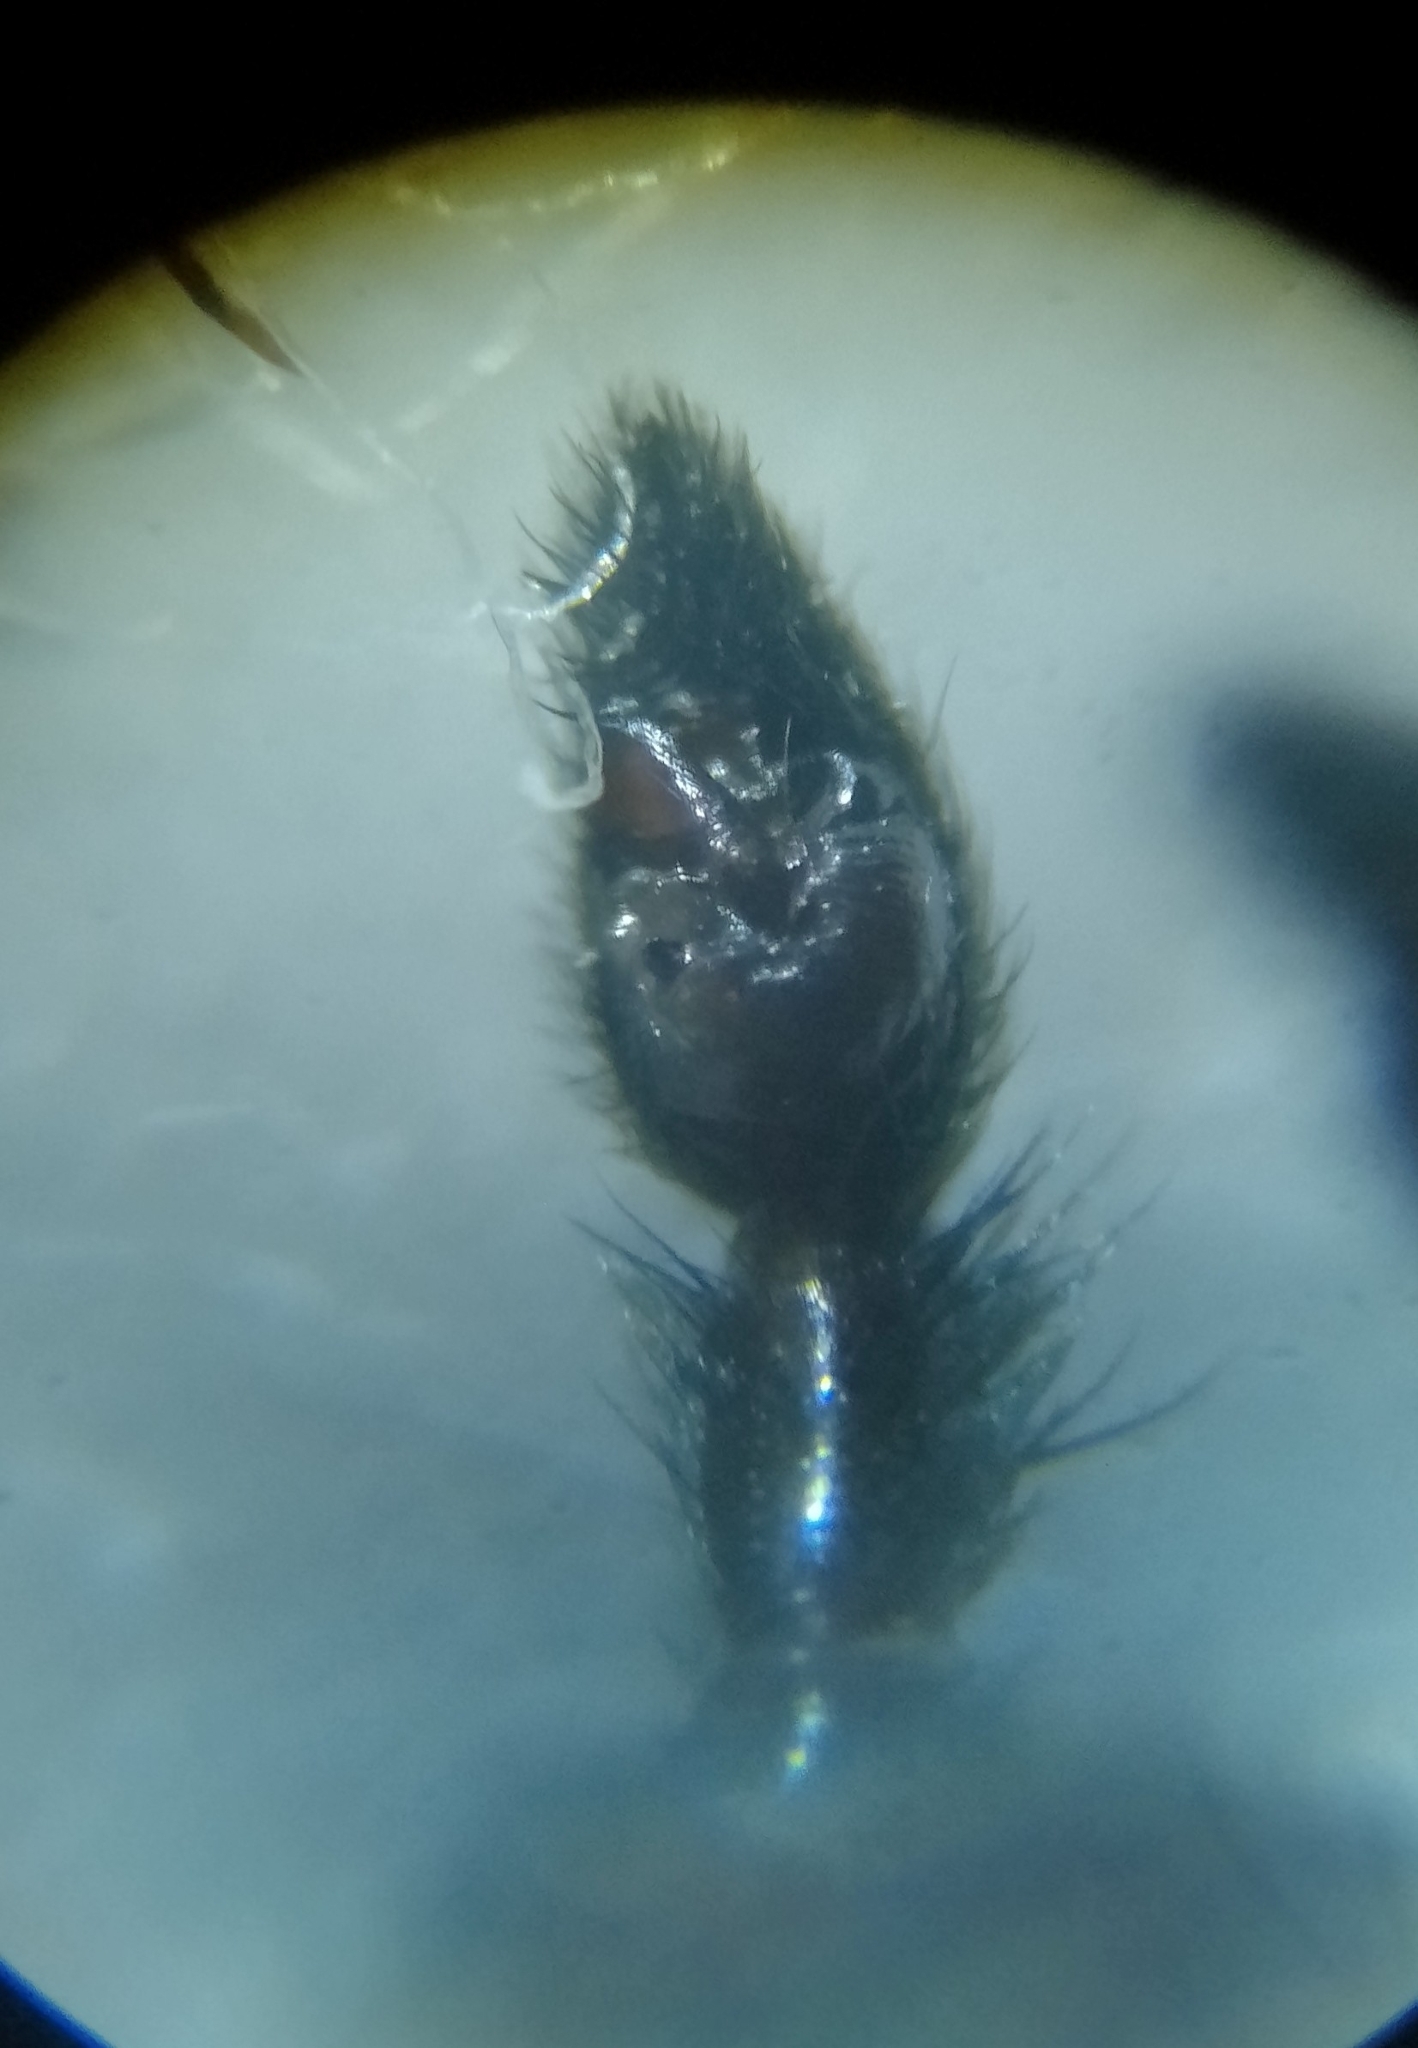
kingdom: Animalia
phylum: Arthropoda
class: Arachnida
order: Araneae
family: Lycosidae
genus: Pardosa
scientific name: Pardosa lugubris
